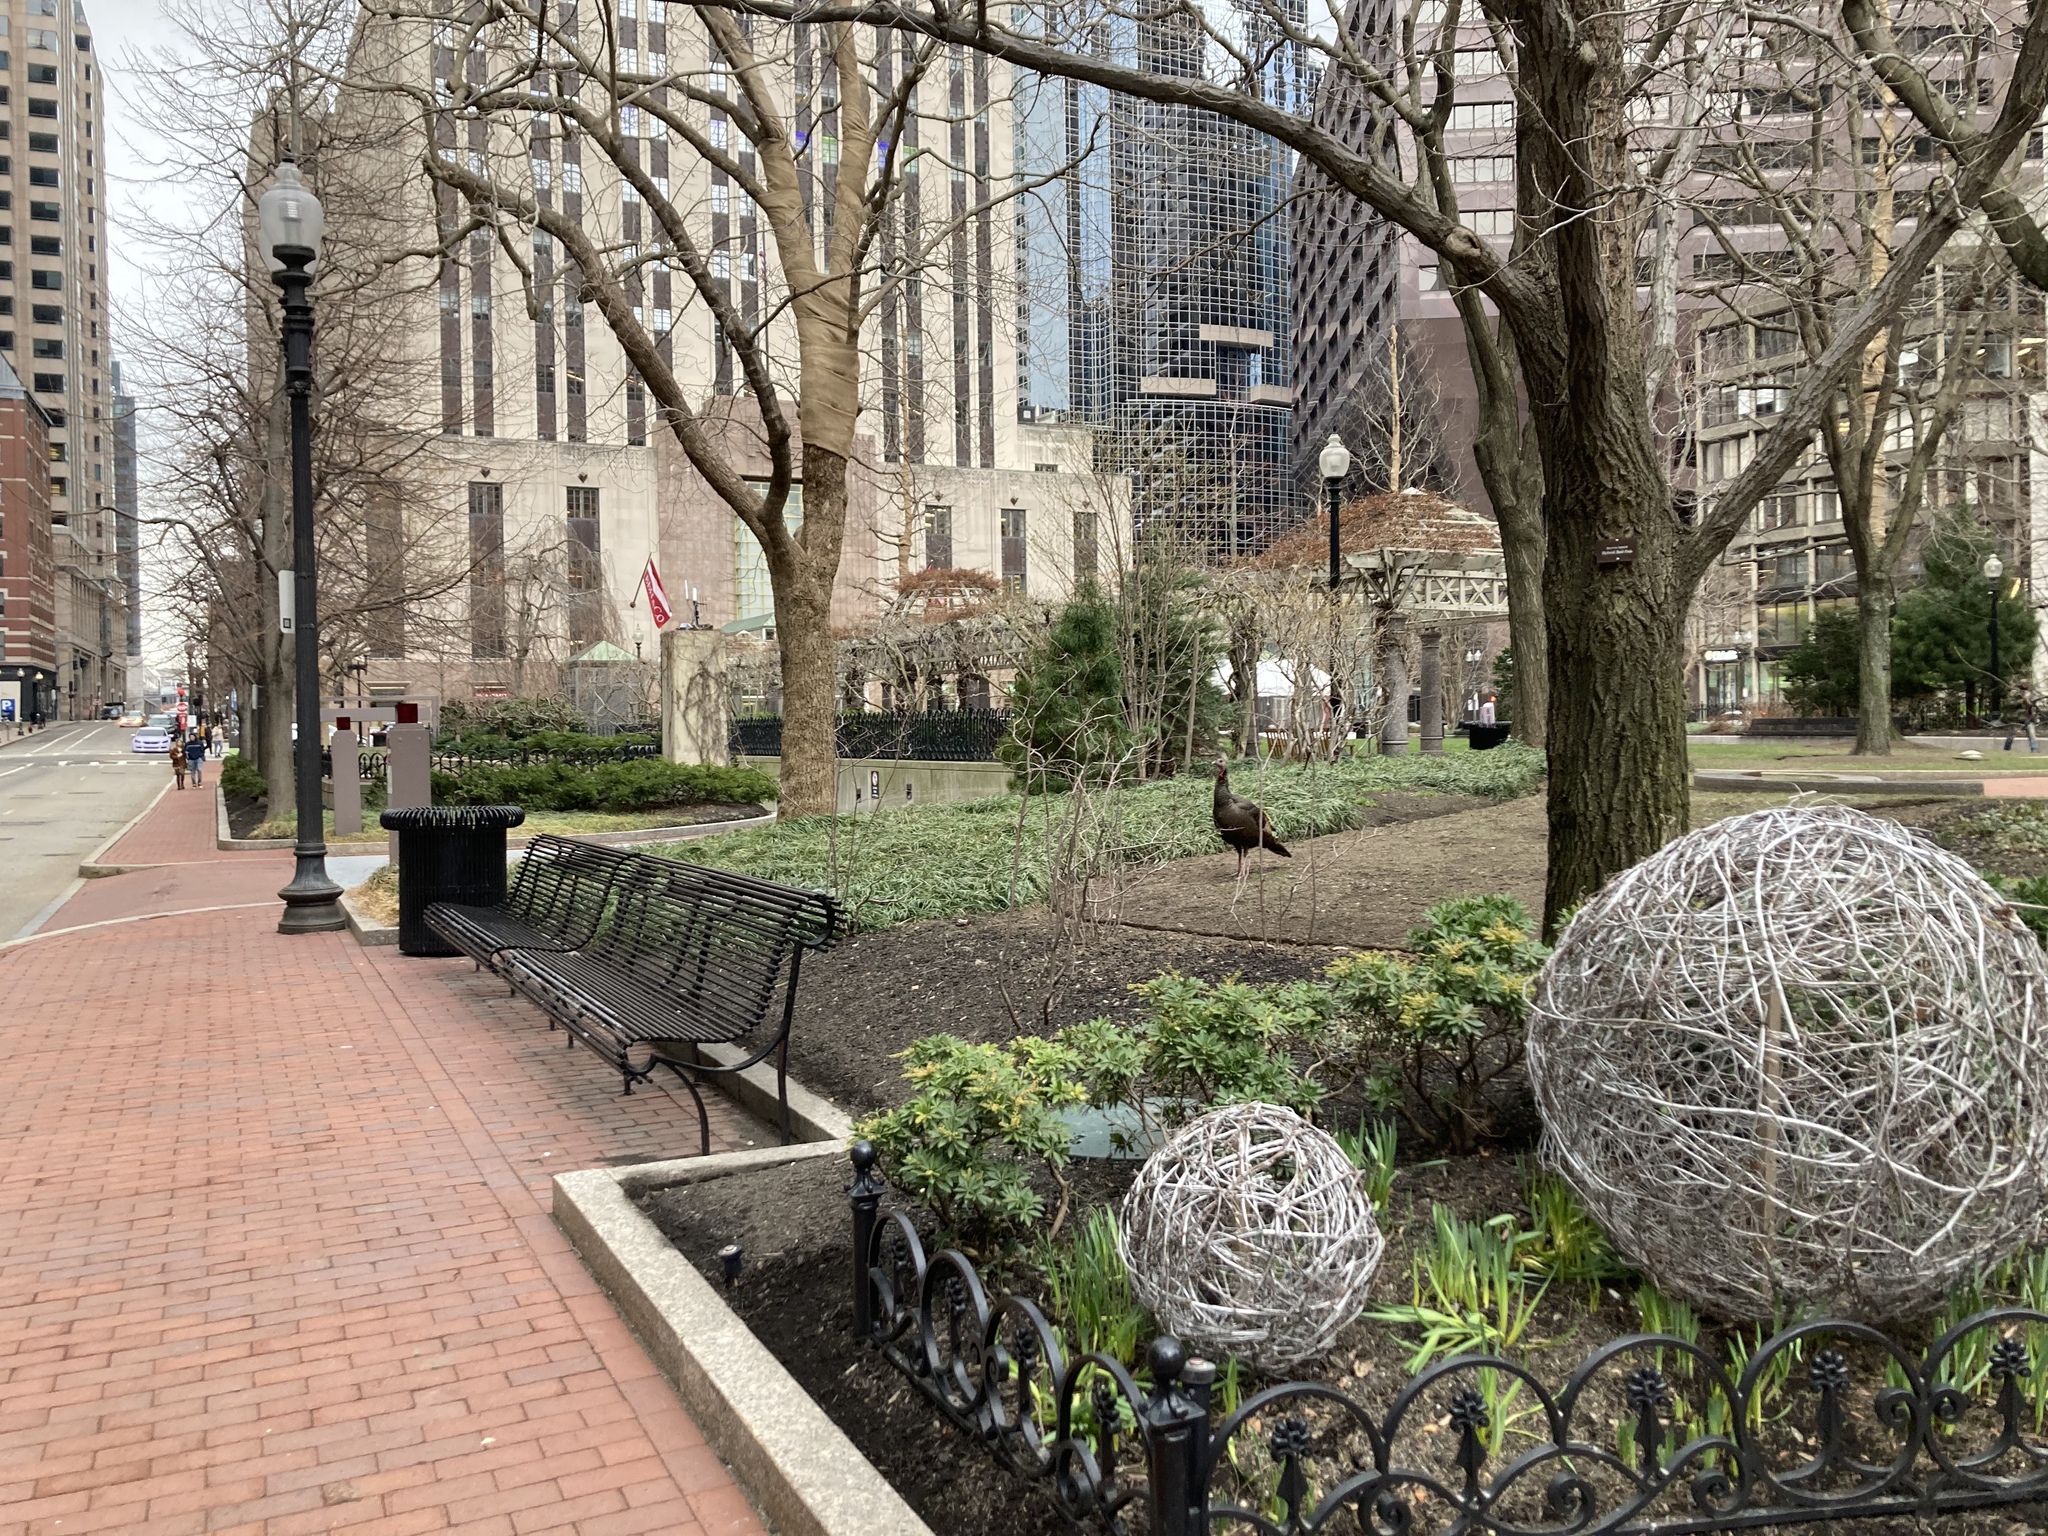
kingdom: Animalia
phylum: Chordata
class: Aves
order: Galliformes
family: Phasianidae
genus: Meleagris
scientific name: Meleagris gallopavo
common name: Wild turkey
